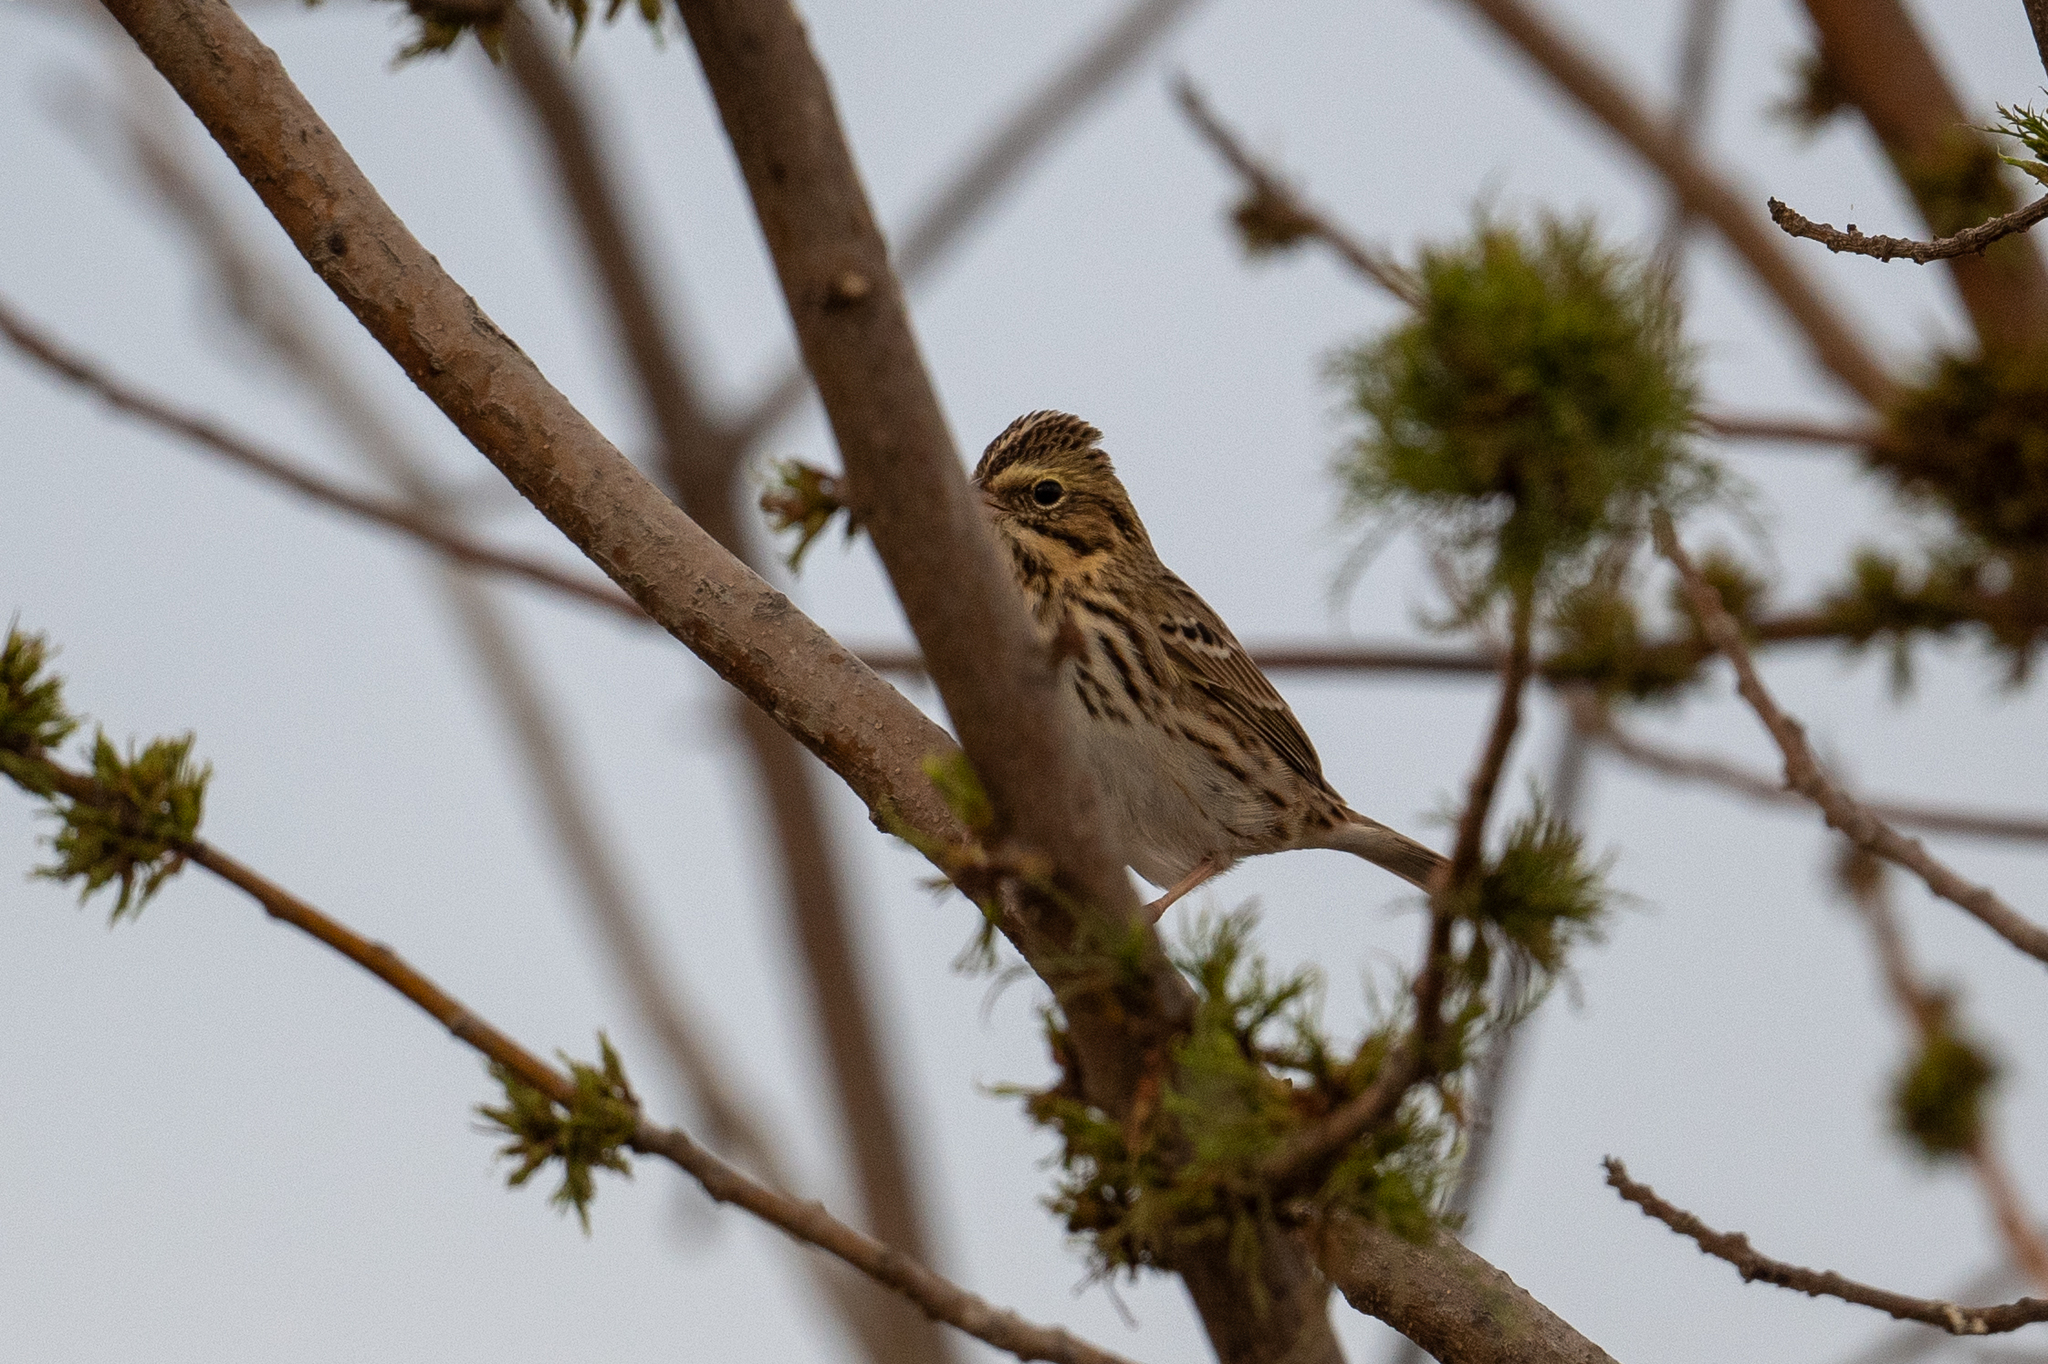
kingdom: Animalia
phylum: Chordata
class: Aves
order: Passeriformes
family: Passerellidae
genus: Passerculus
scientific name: Passerculus sandwichensis
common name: Savannah sparrow
